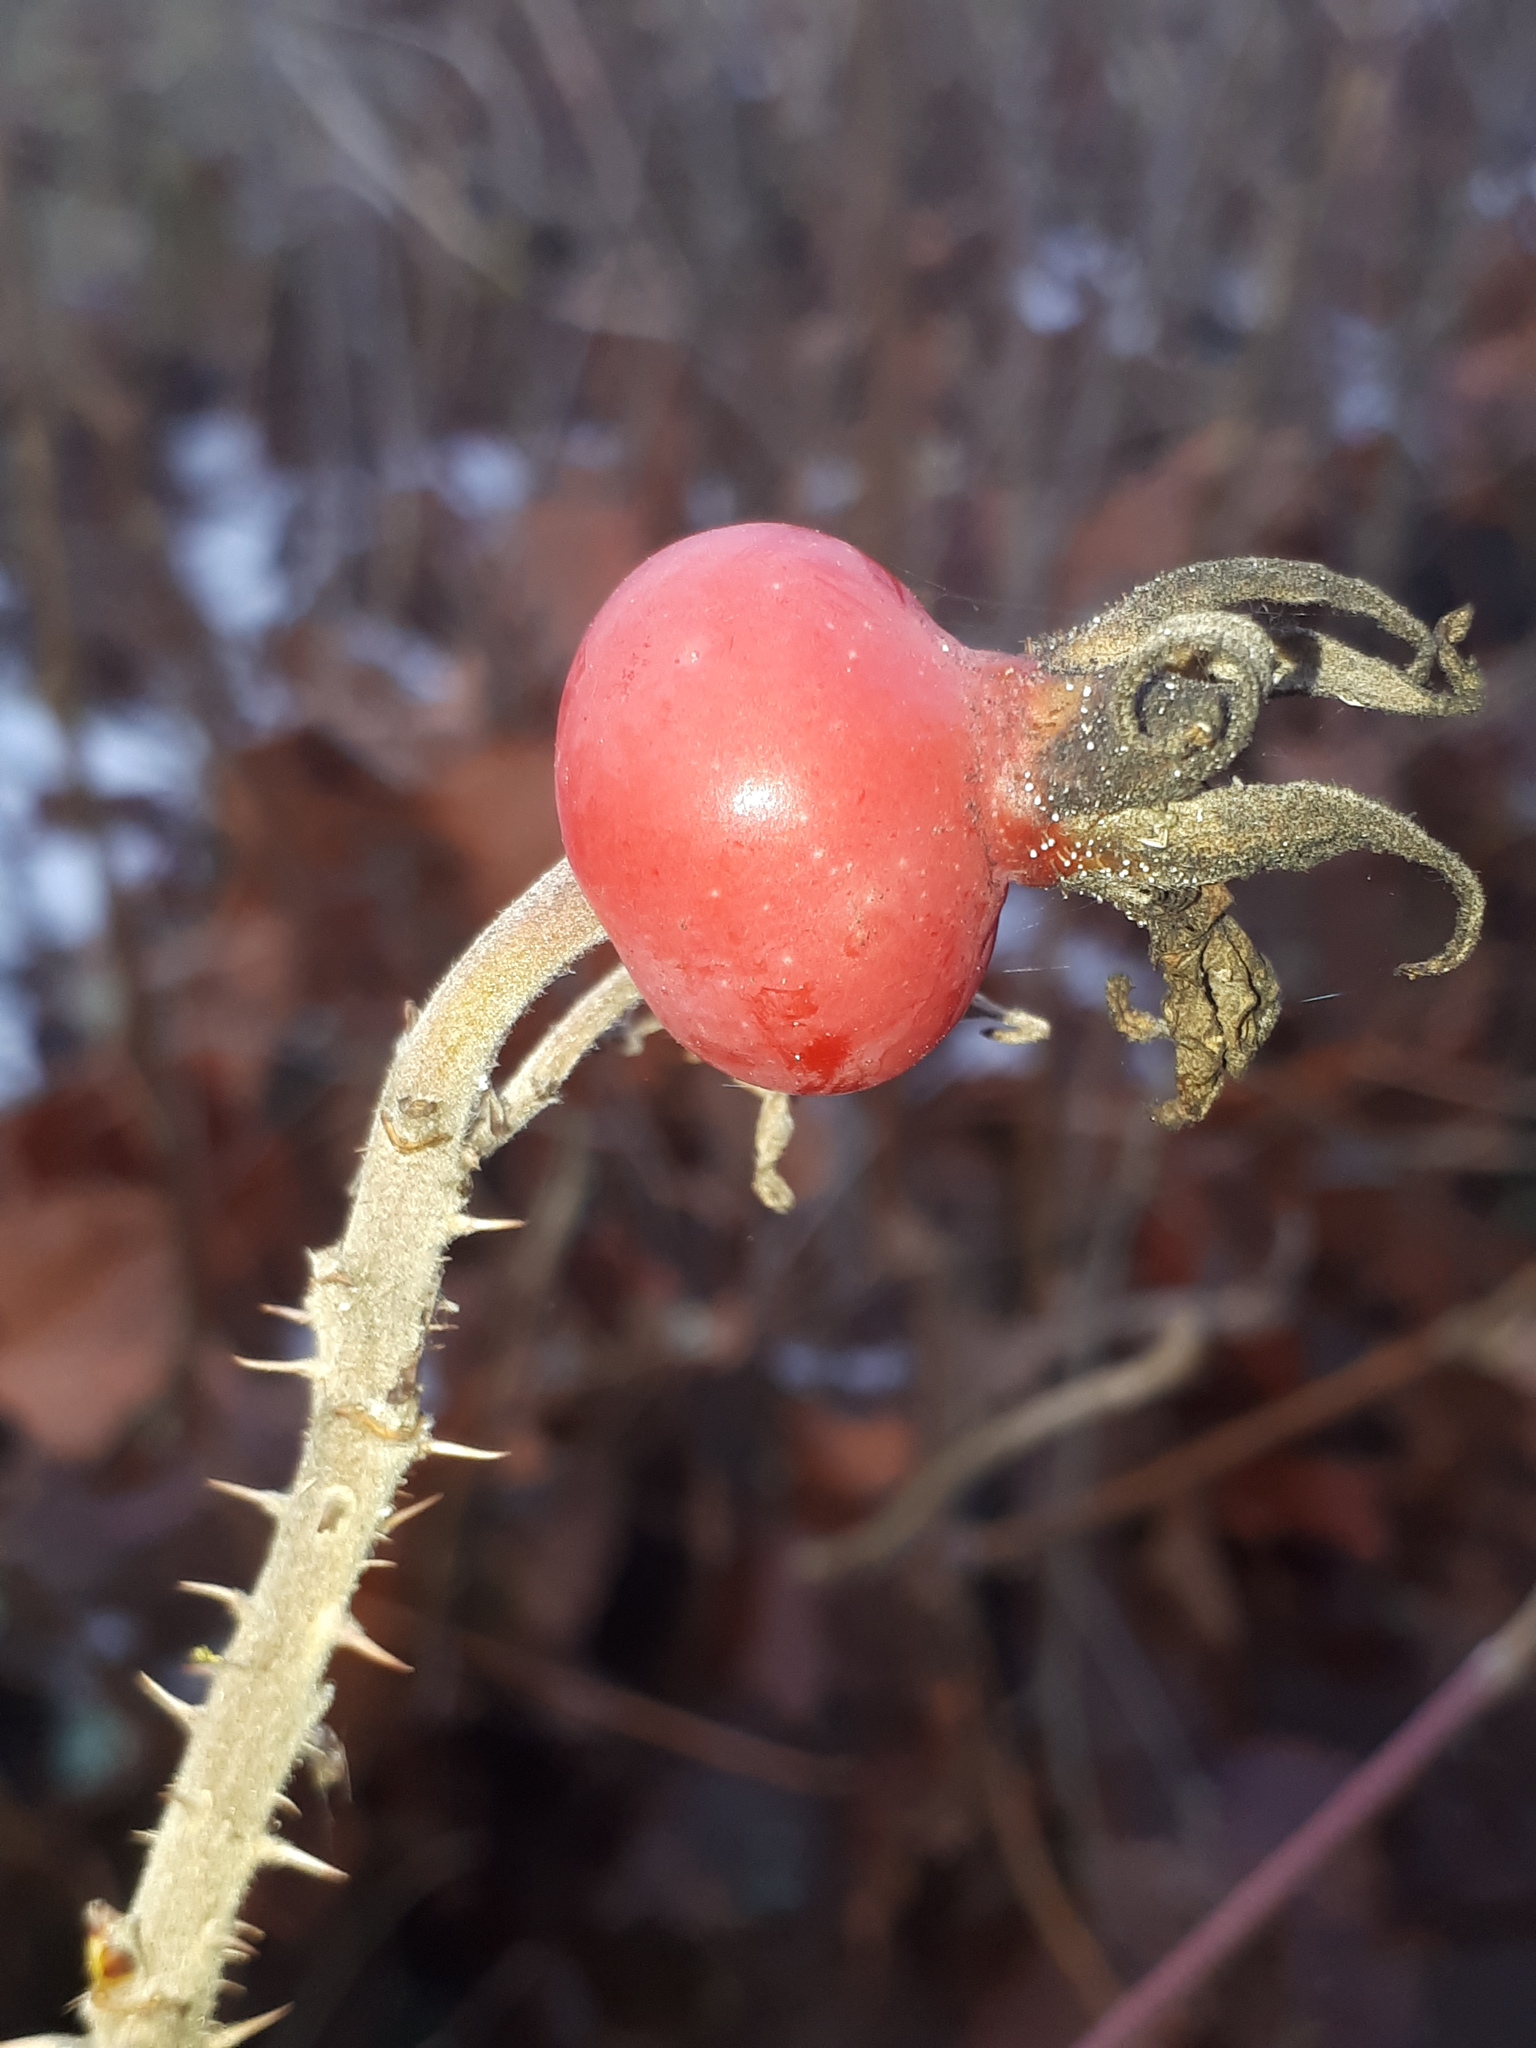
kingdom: Plantae
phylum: Tracheophyta
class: Magnoliopsida
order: Rosales
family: Rosaceae
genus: Rosa
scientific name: Rosa rugosa
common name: Japanese rose
